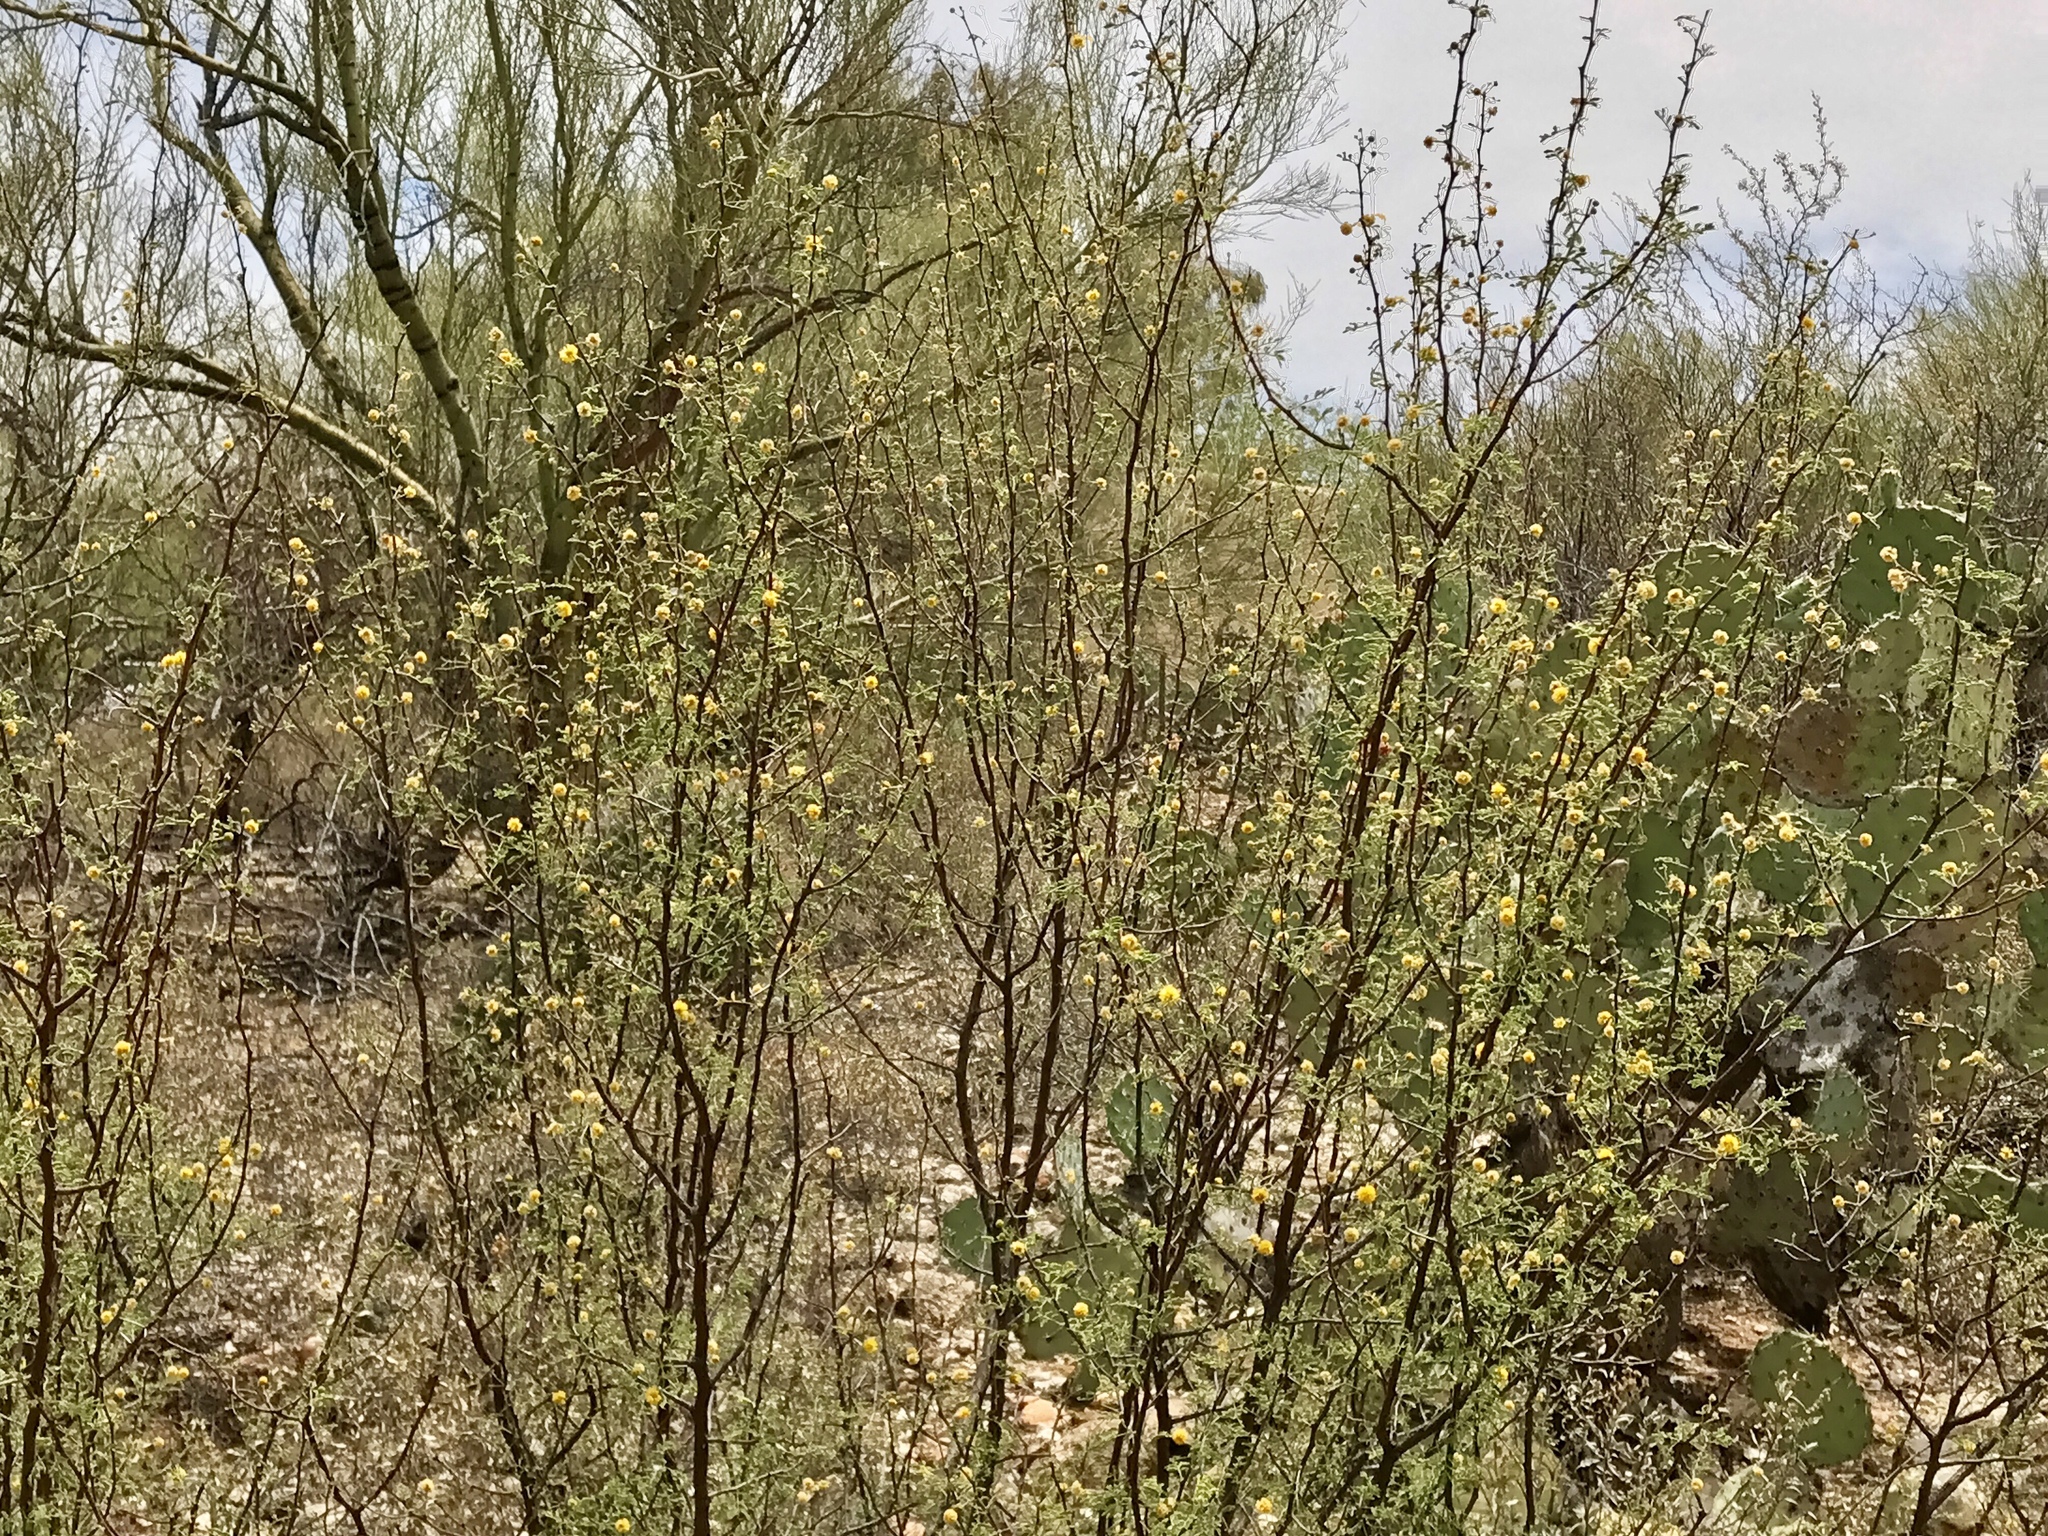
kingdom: Plantae
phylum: Tracheophyta
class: Magnoliopsida
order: Fabales
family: Fabaceae
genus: Vachellia
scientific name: Vachellia constricta
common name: Mescat acacia
